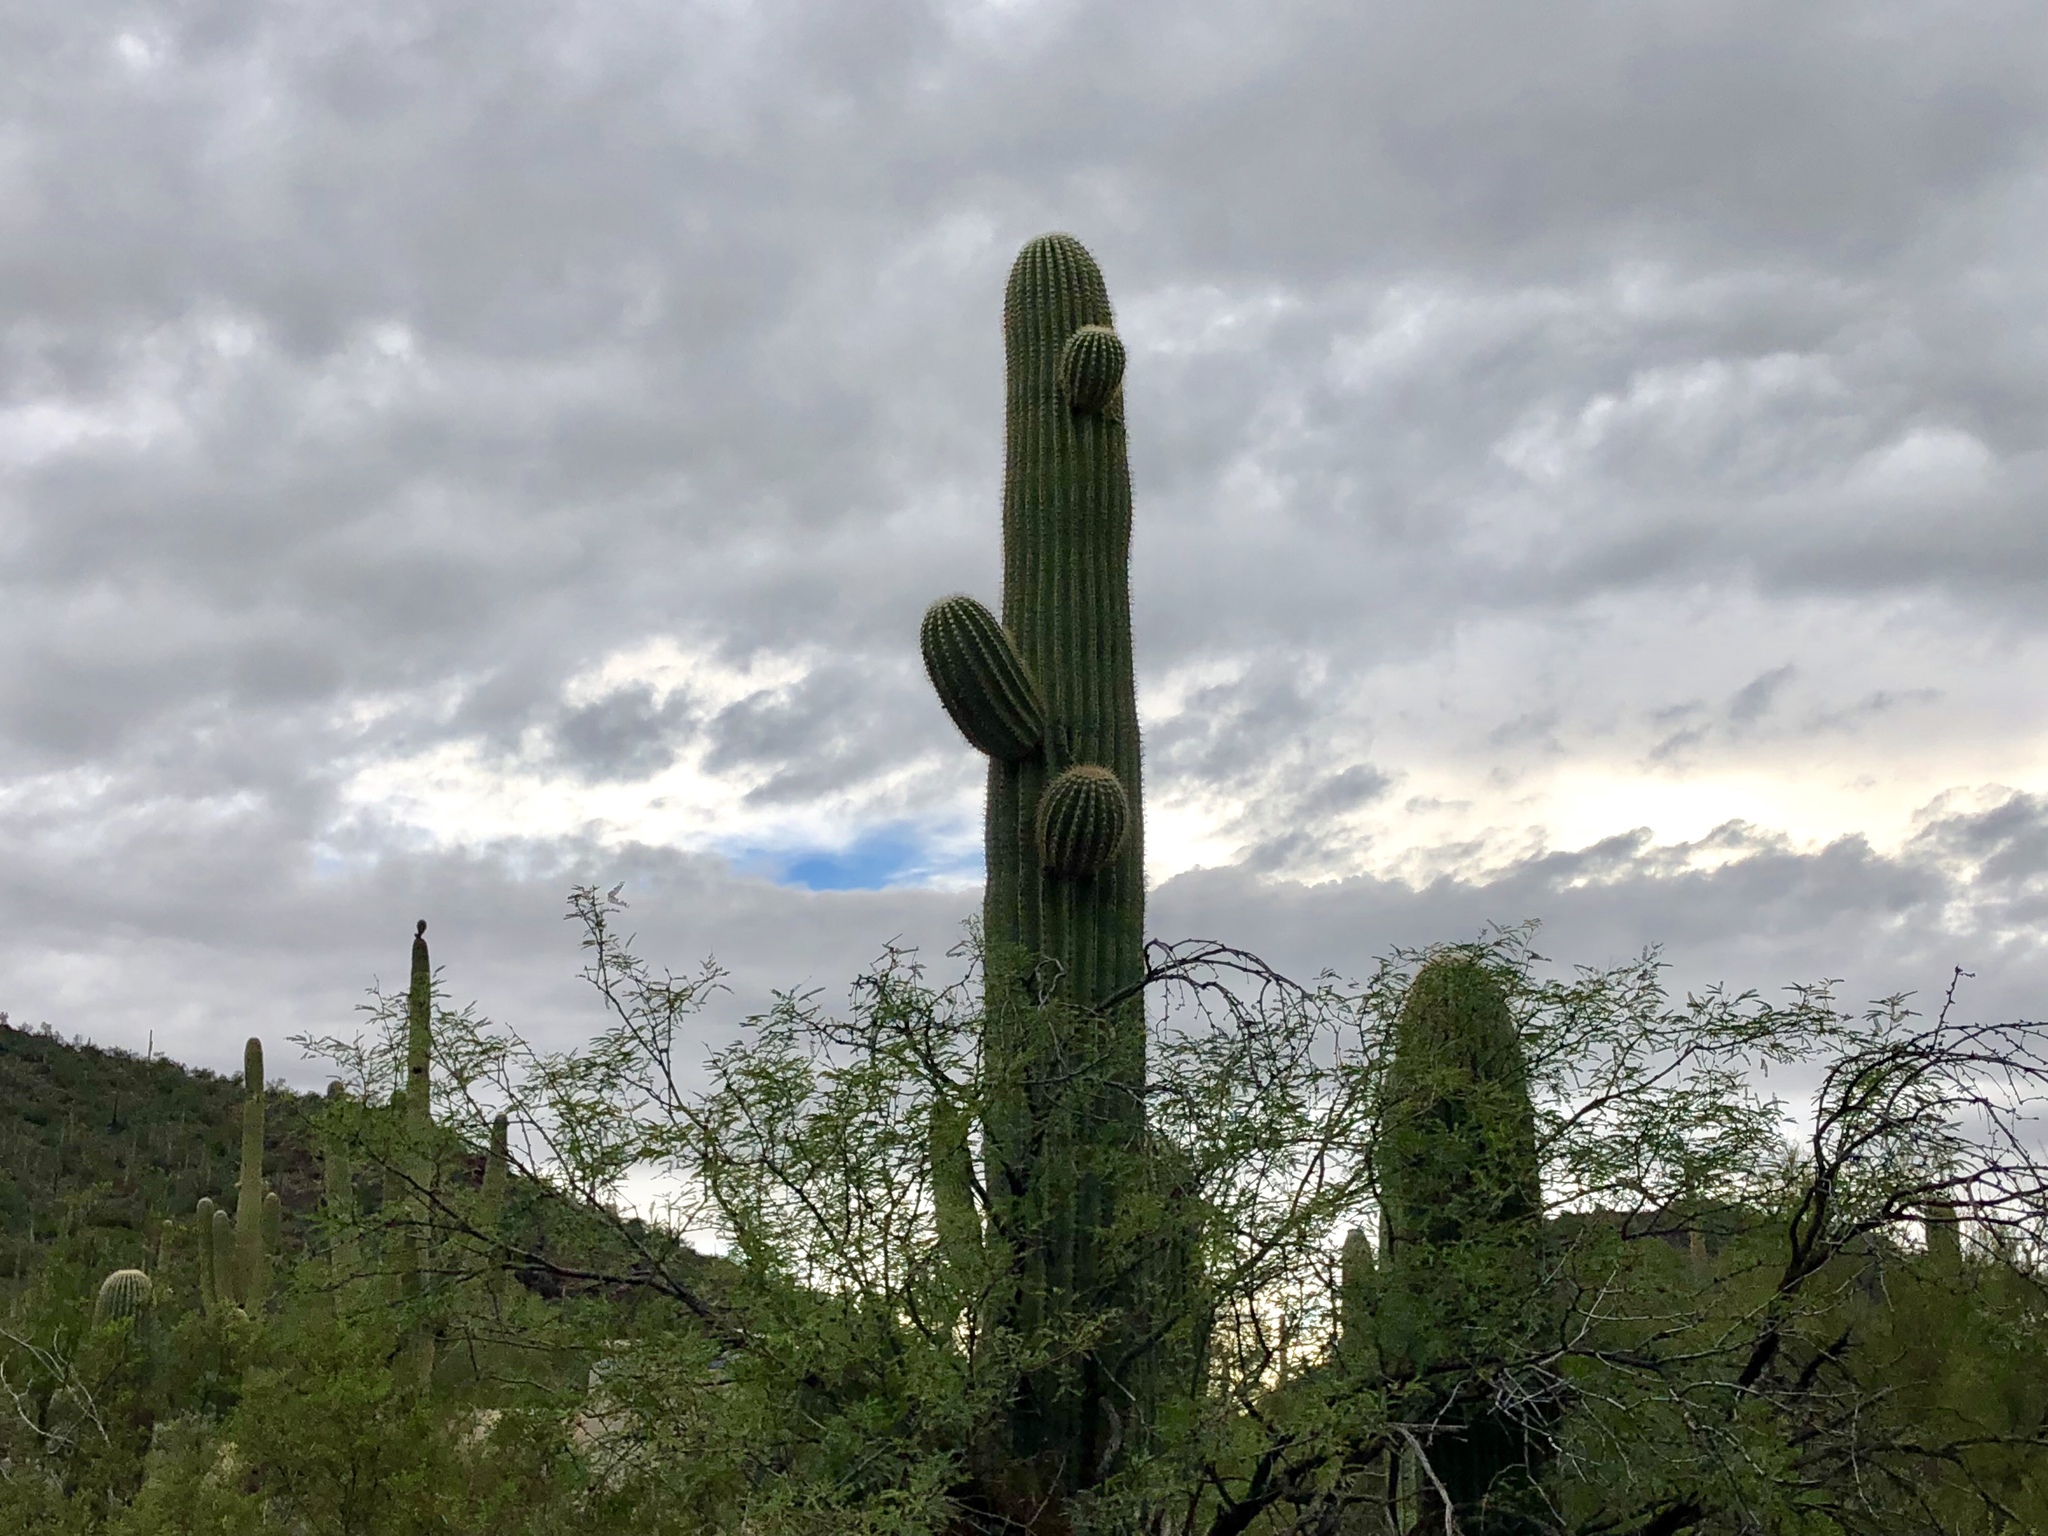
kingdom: Plantae
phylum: Tracheophyta
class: Magnoliopsida
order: Caryophyllales
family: Cactaceae
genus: Carnegiea
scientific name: Carnegiea gigantea
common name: Saguaro
